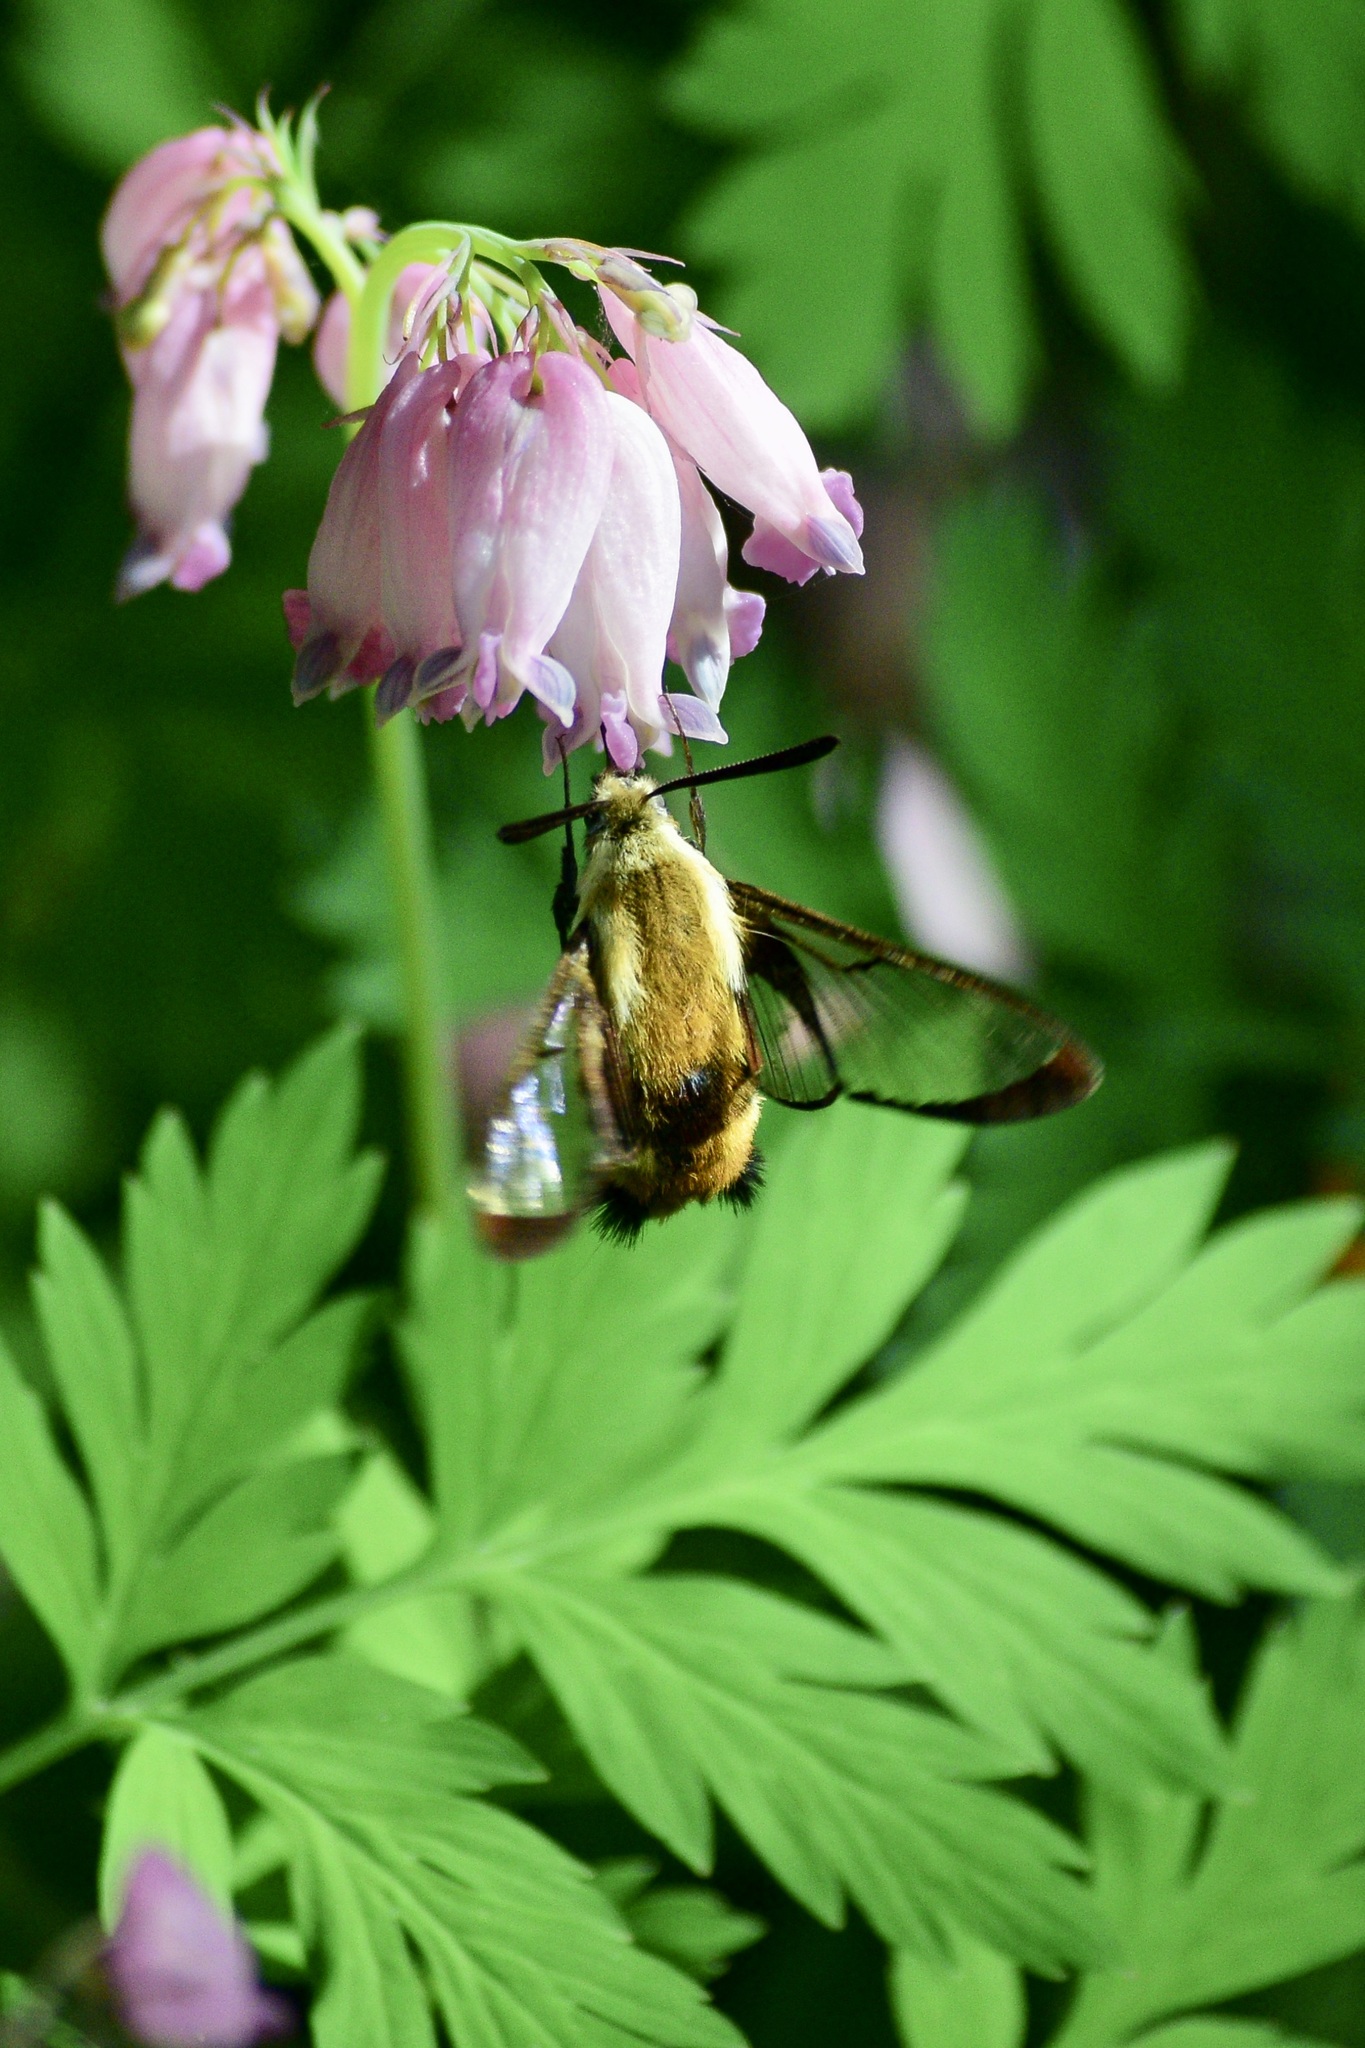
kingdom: Animalia
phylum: Arthropoda
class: Insecta
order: Lepidoptera
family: Sphingidae
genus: Hemaris
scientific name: Hemaris diffinis
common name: Bumblebee moth
